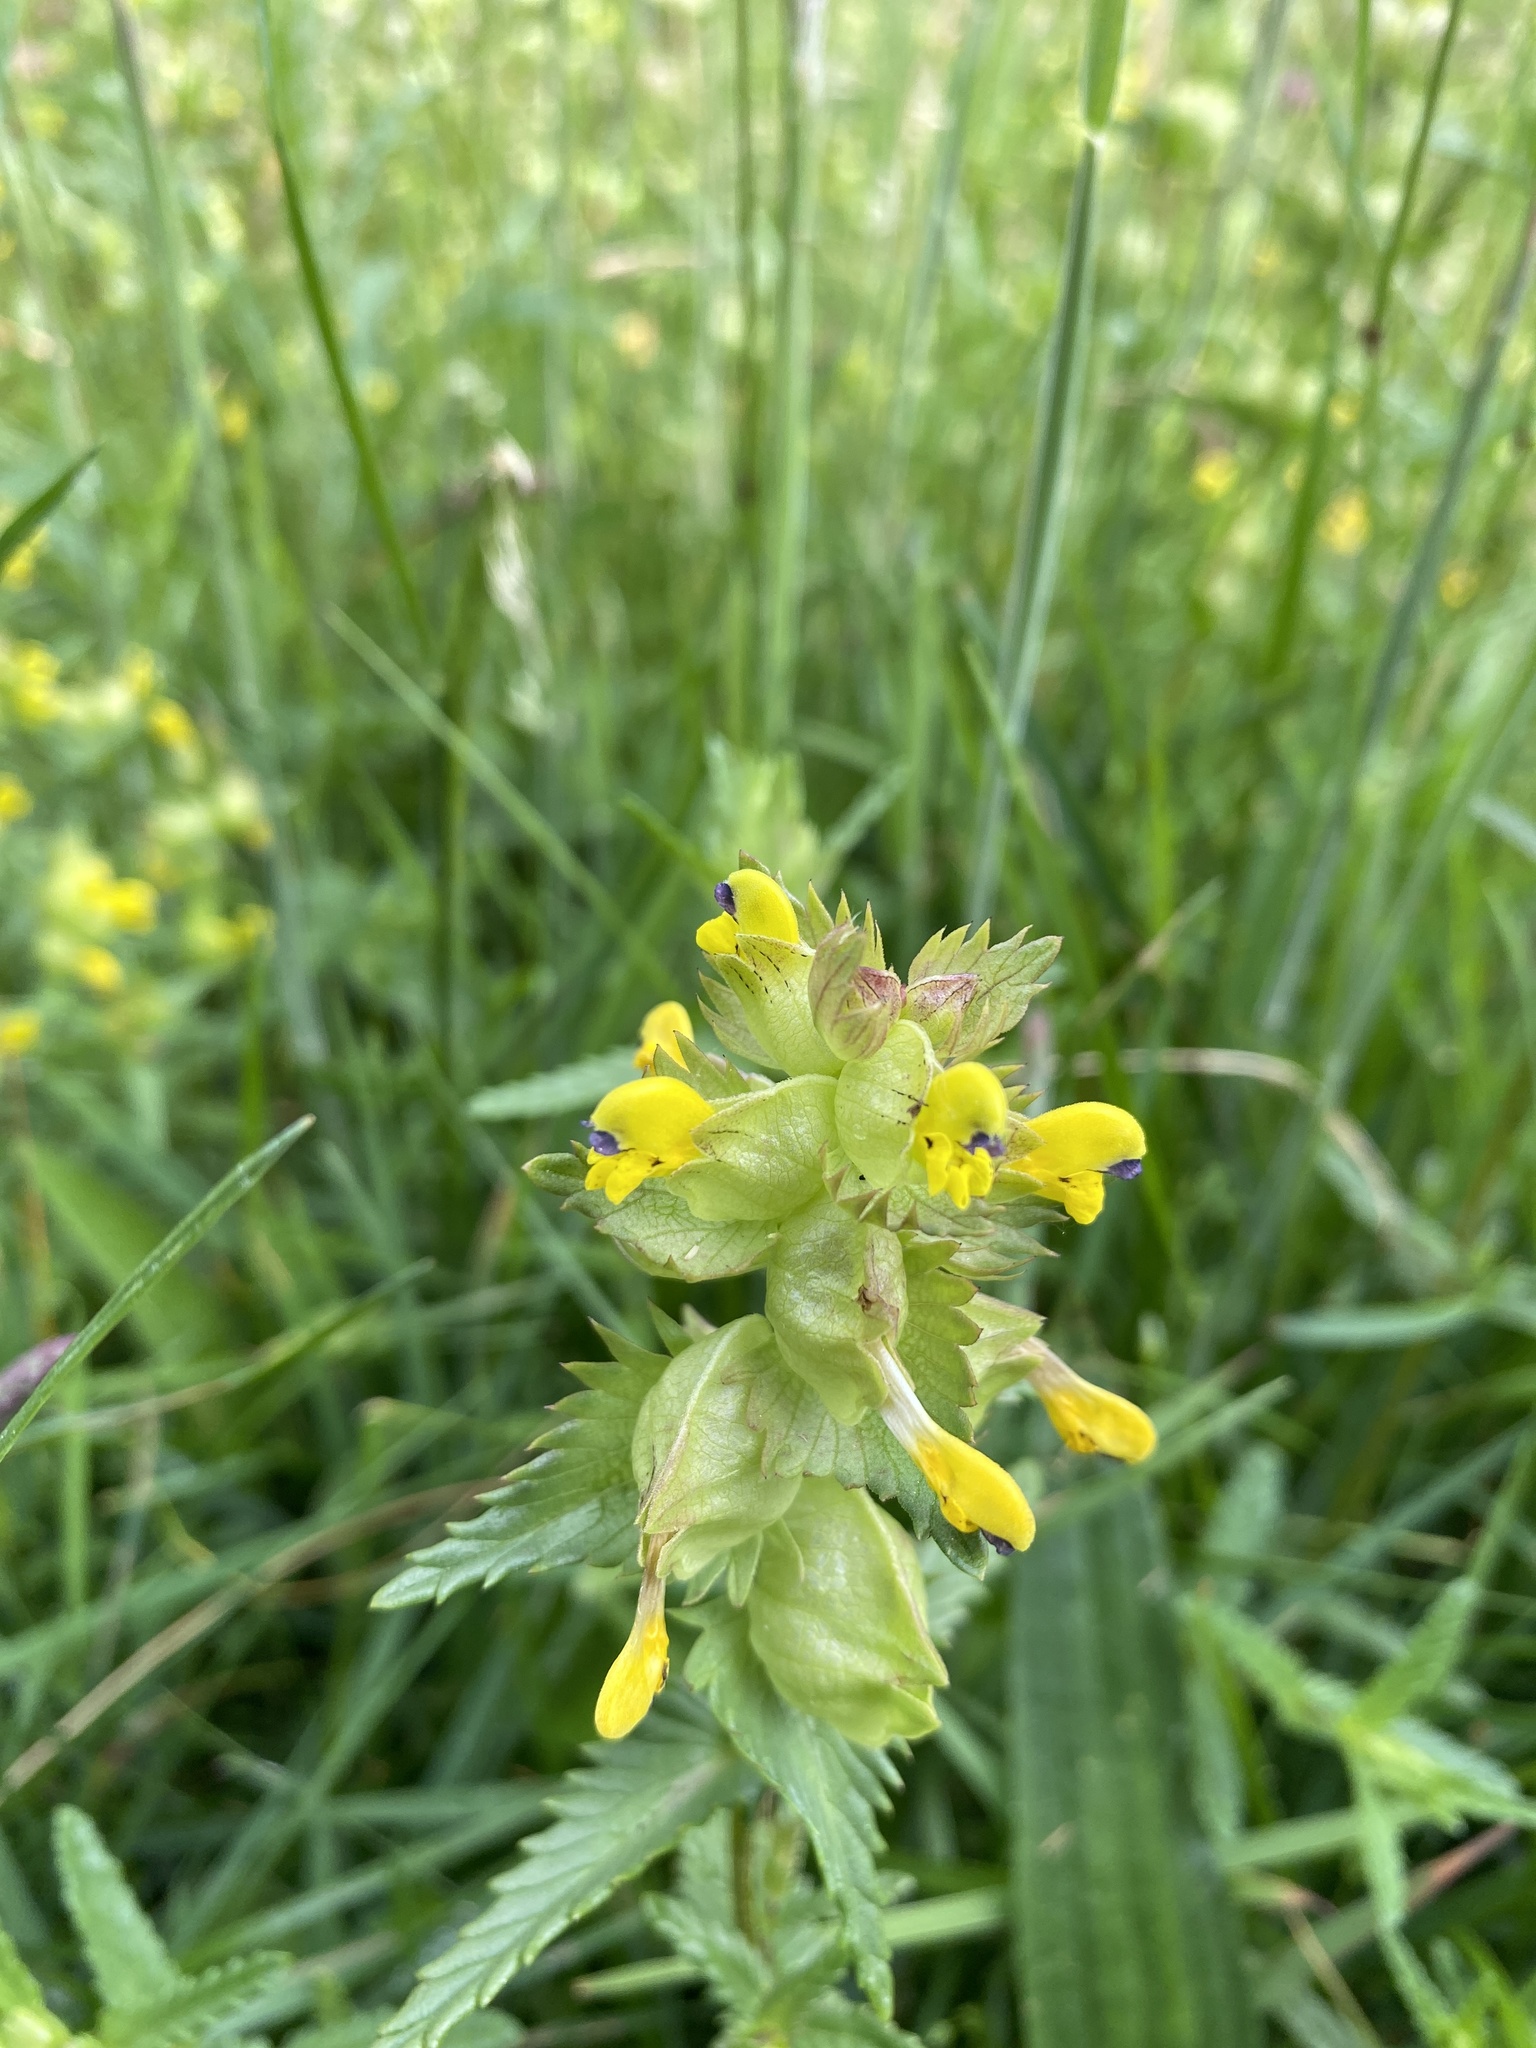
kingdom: Plantae
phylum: Tracheophyta
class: Magnoliopsida
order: Lamiales
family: Orobanchaceae
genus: Rhinanthus
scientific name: Rhinanthus minor
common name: Yellow-rattle
